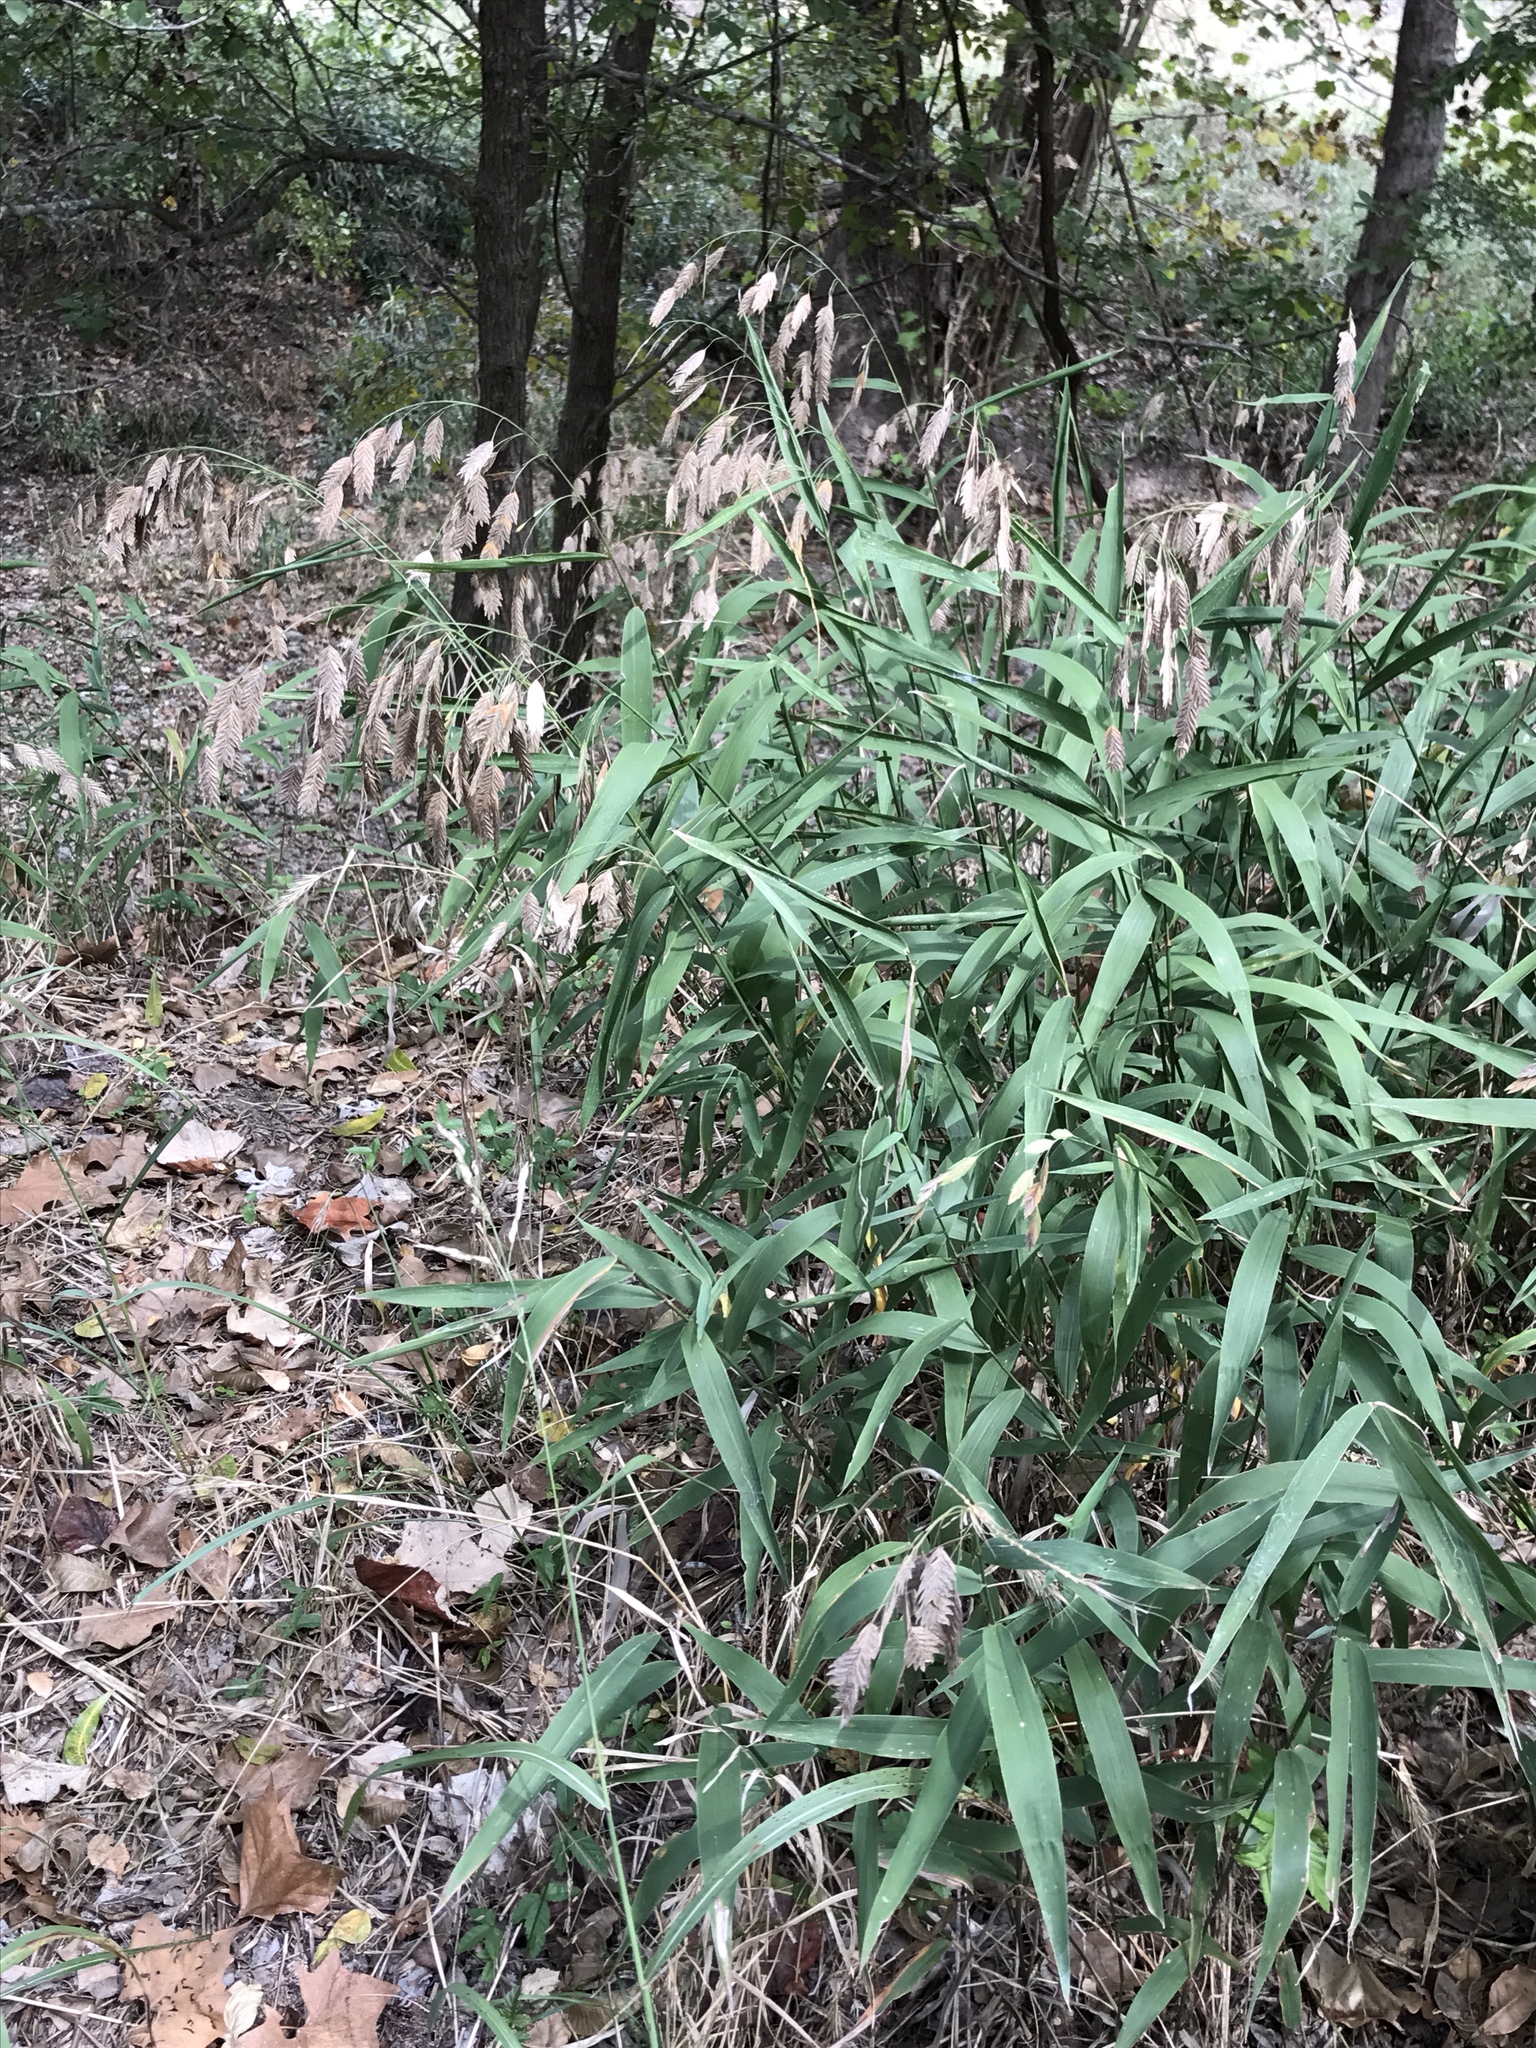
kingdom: Plantae
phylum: Tracheophyta
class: Liliopsida
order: Poales
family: Poaceae
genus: Chasmanthium
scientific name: Chasmanthium latifolium
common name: Broad-leaved chasmanthium
